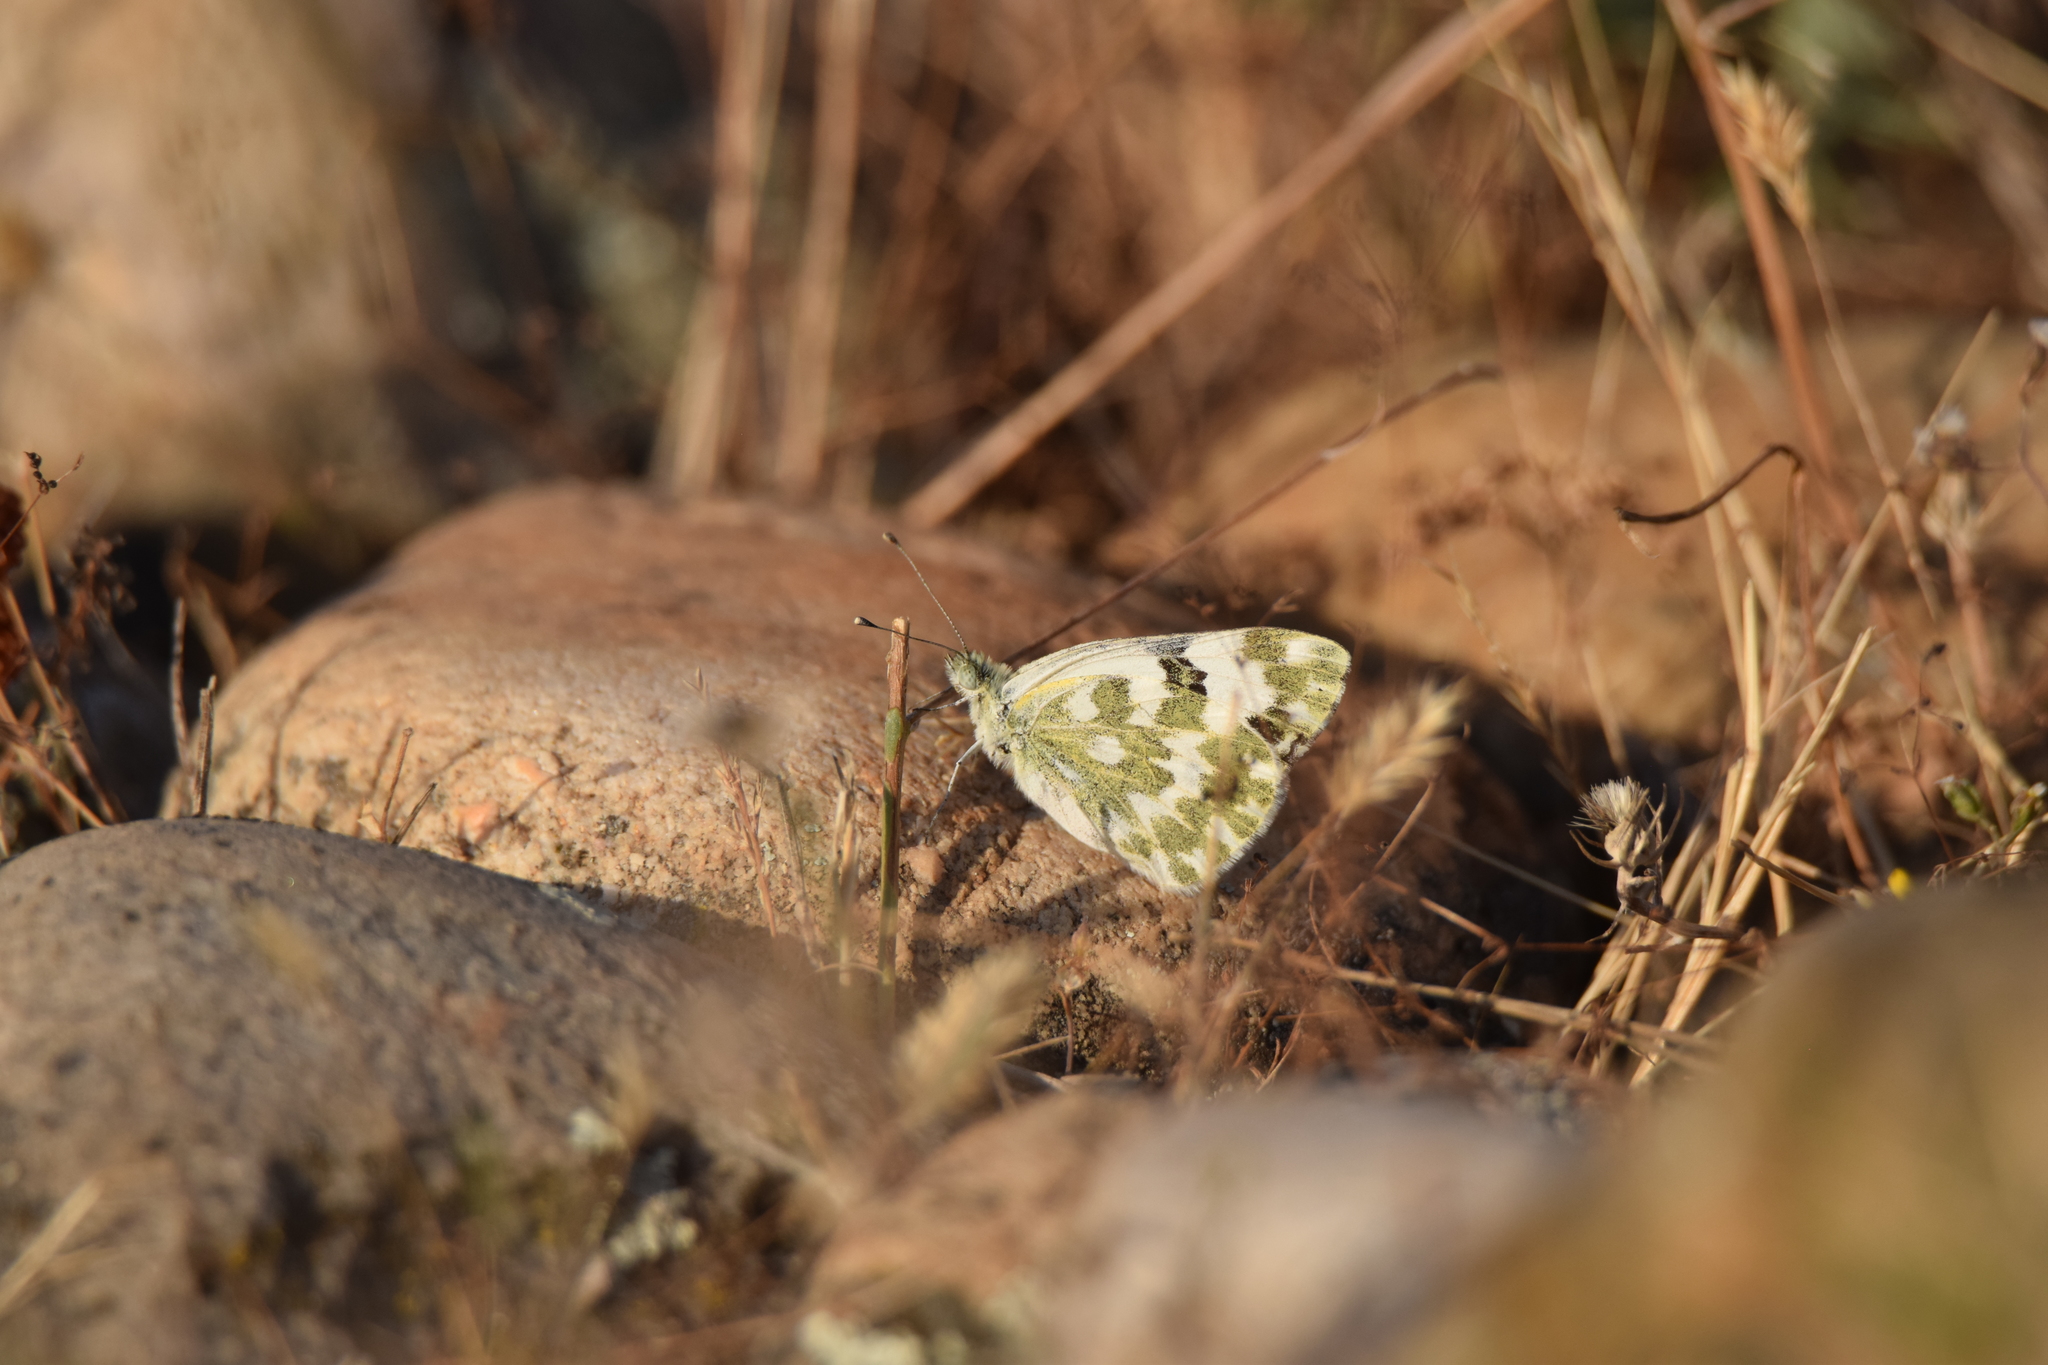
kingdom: Animalia
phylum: Arthropoda
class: Insecta
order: Lepidoptera
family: Pieridae
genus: Pontia
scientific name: Pontia daplidice
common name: Bath white
